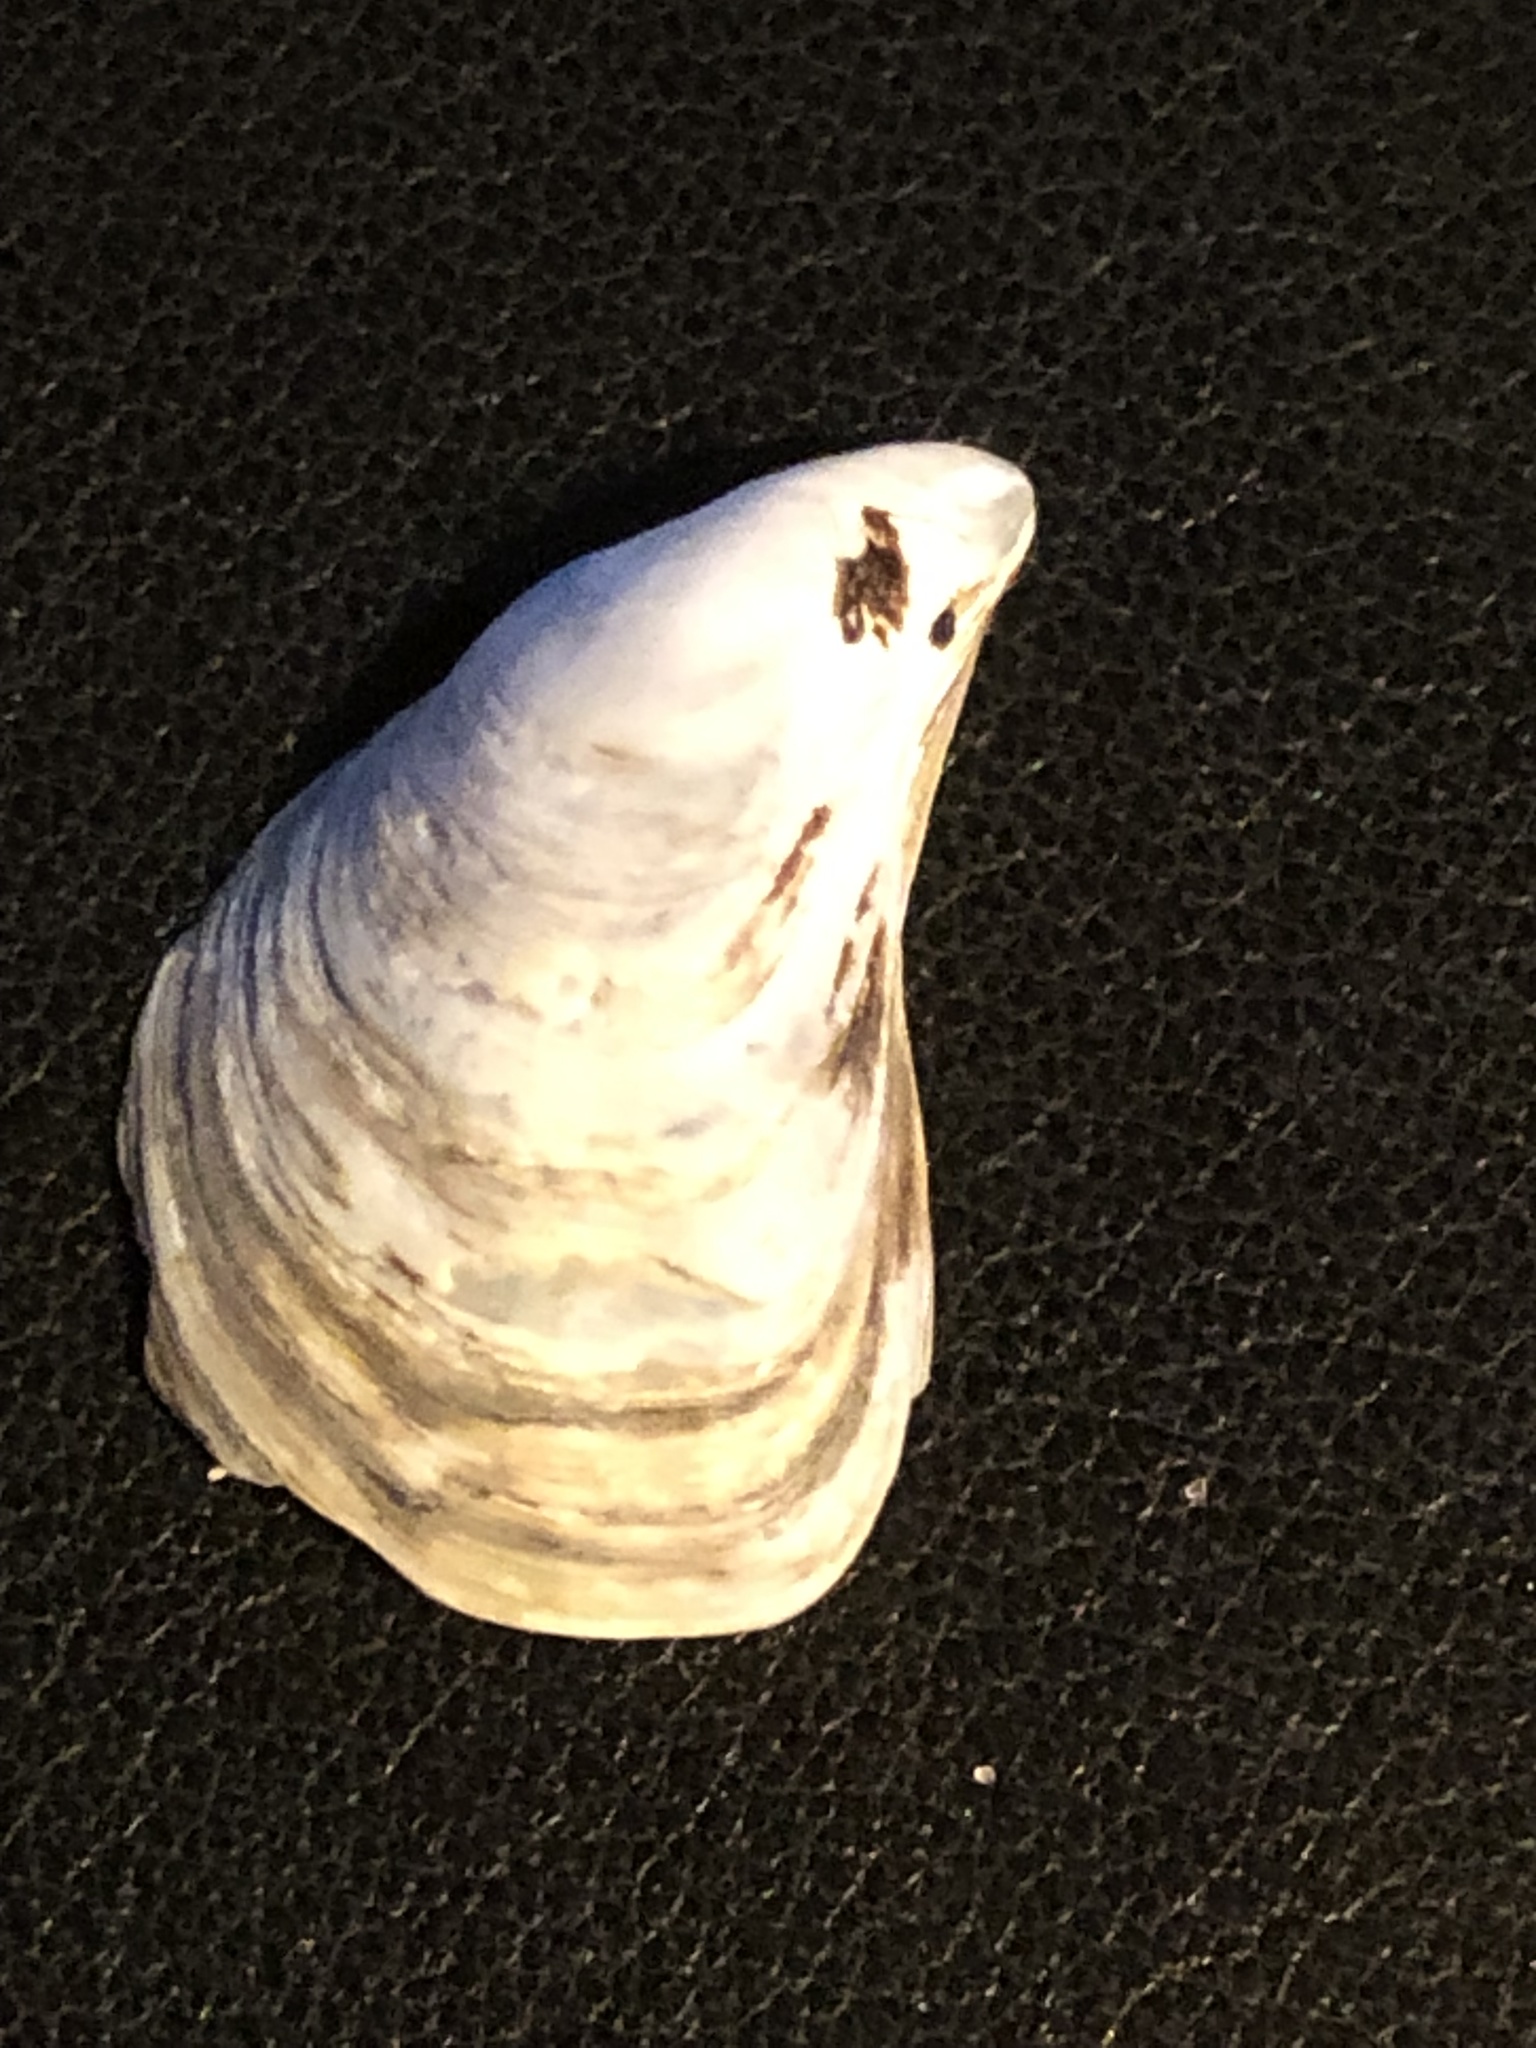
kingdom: Animalia
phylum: Mollusca
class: Bivalvia
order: Myida
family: Dreissenidae
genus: Dreissena
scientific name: Dreissena bugensis
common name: Quagga mussel
